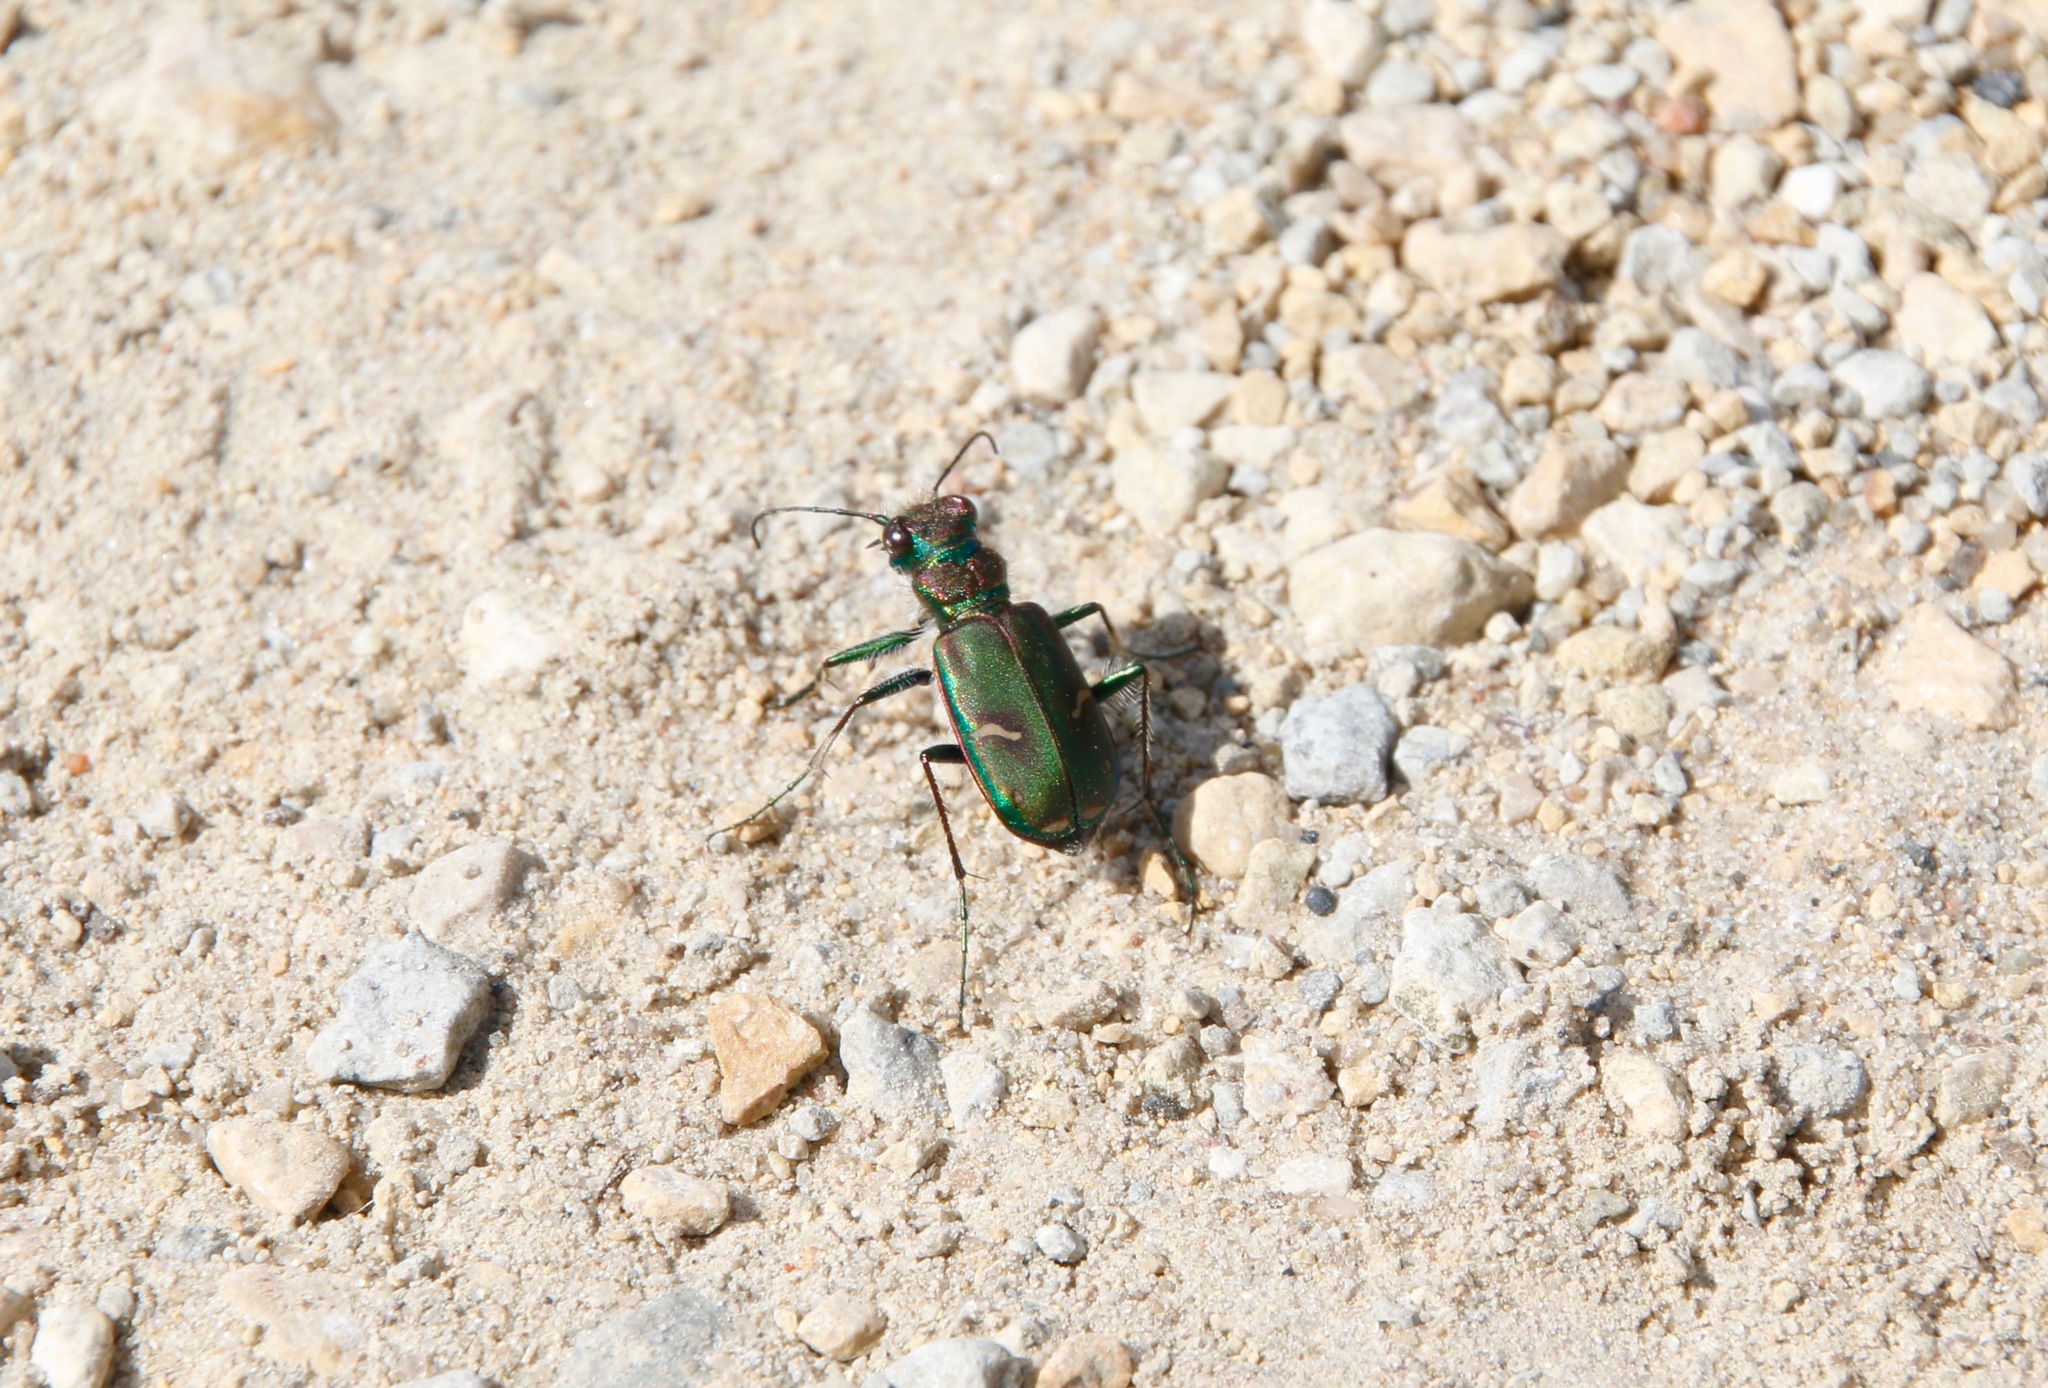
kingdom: Animalia
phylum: Arthropoda
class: Insecta
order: Coleoptera
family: Carabidae
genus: Cicindela
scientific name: Cicindela purpurea
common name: Cow path tiger beetle
